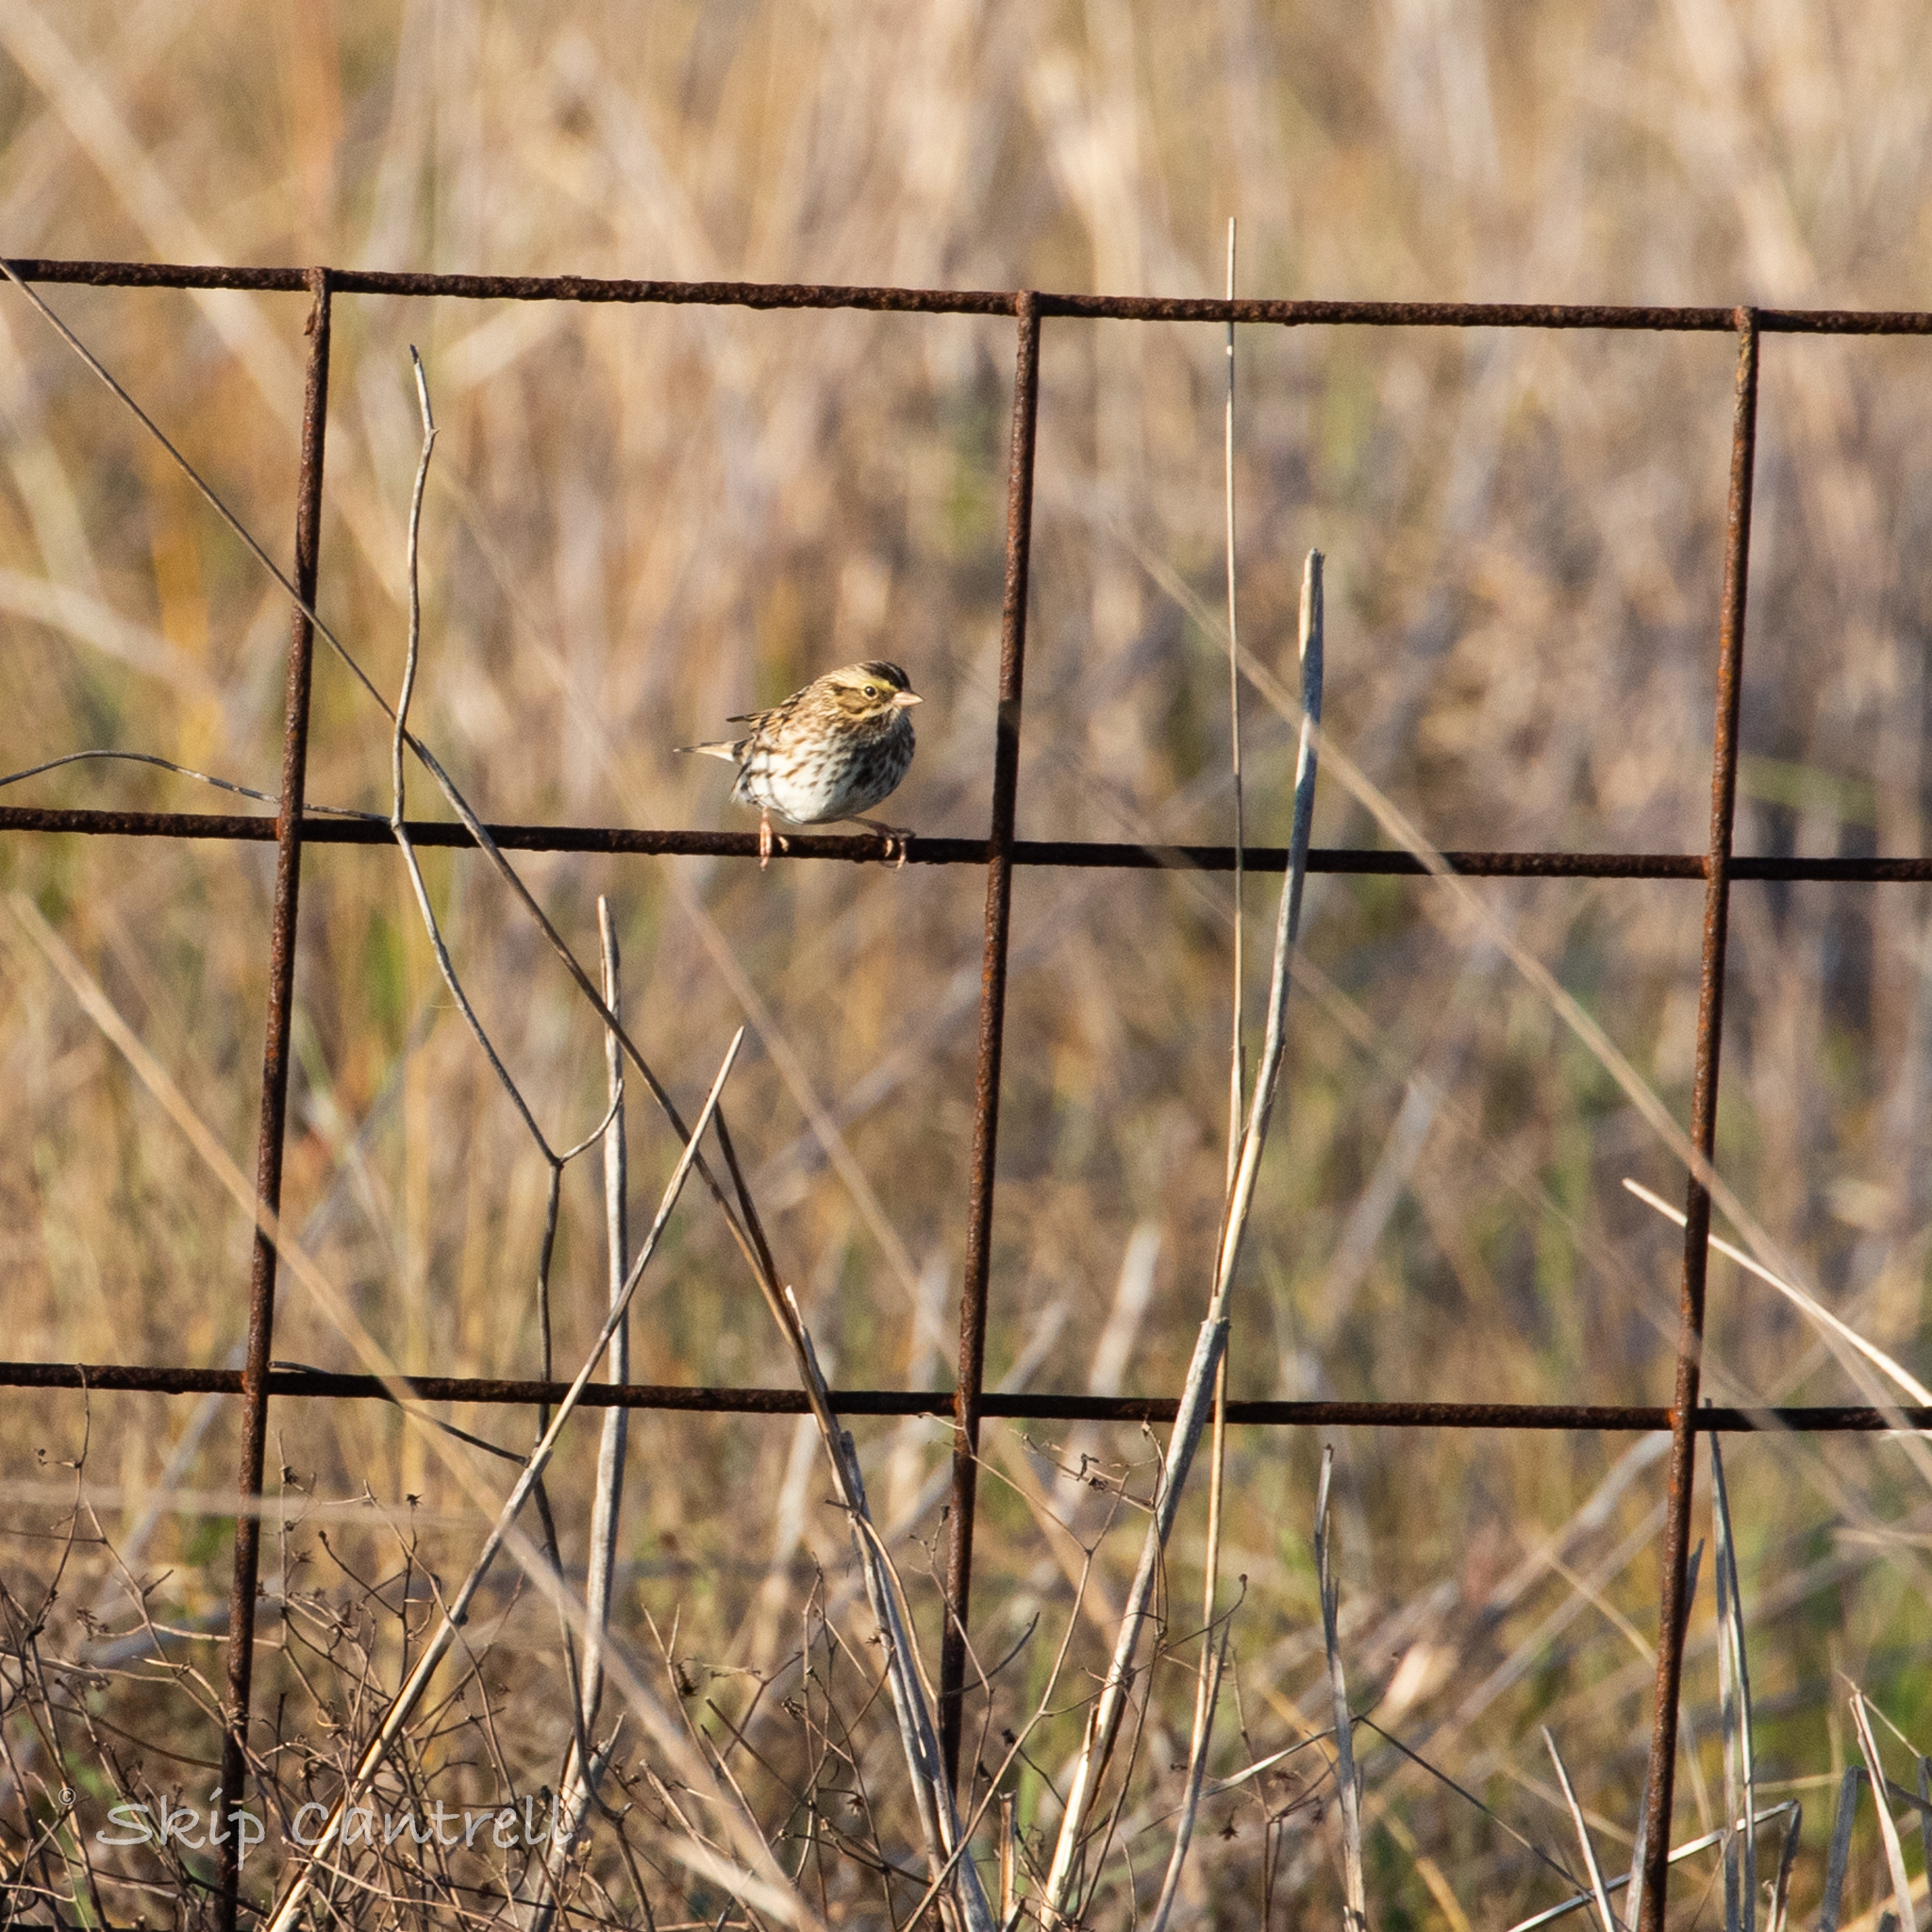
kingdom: Animalia
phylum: Chordata
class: Aves
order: Passeriformes
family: Passerellidae
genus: Passerculus
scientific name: Passerculus sandwichensis
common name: Savannah sparrow
